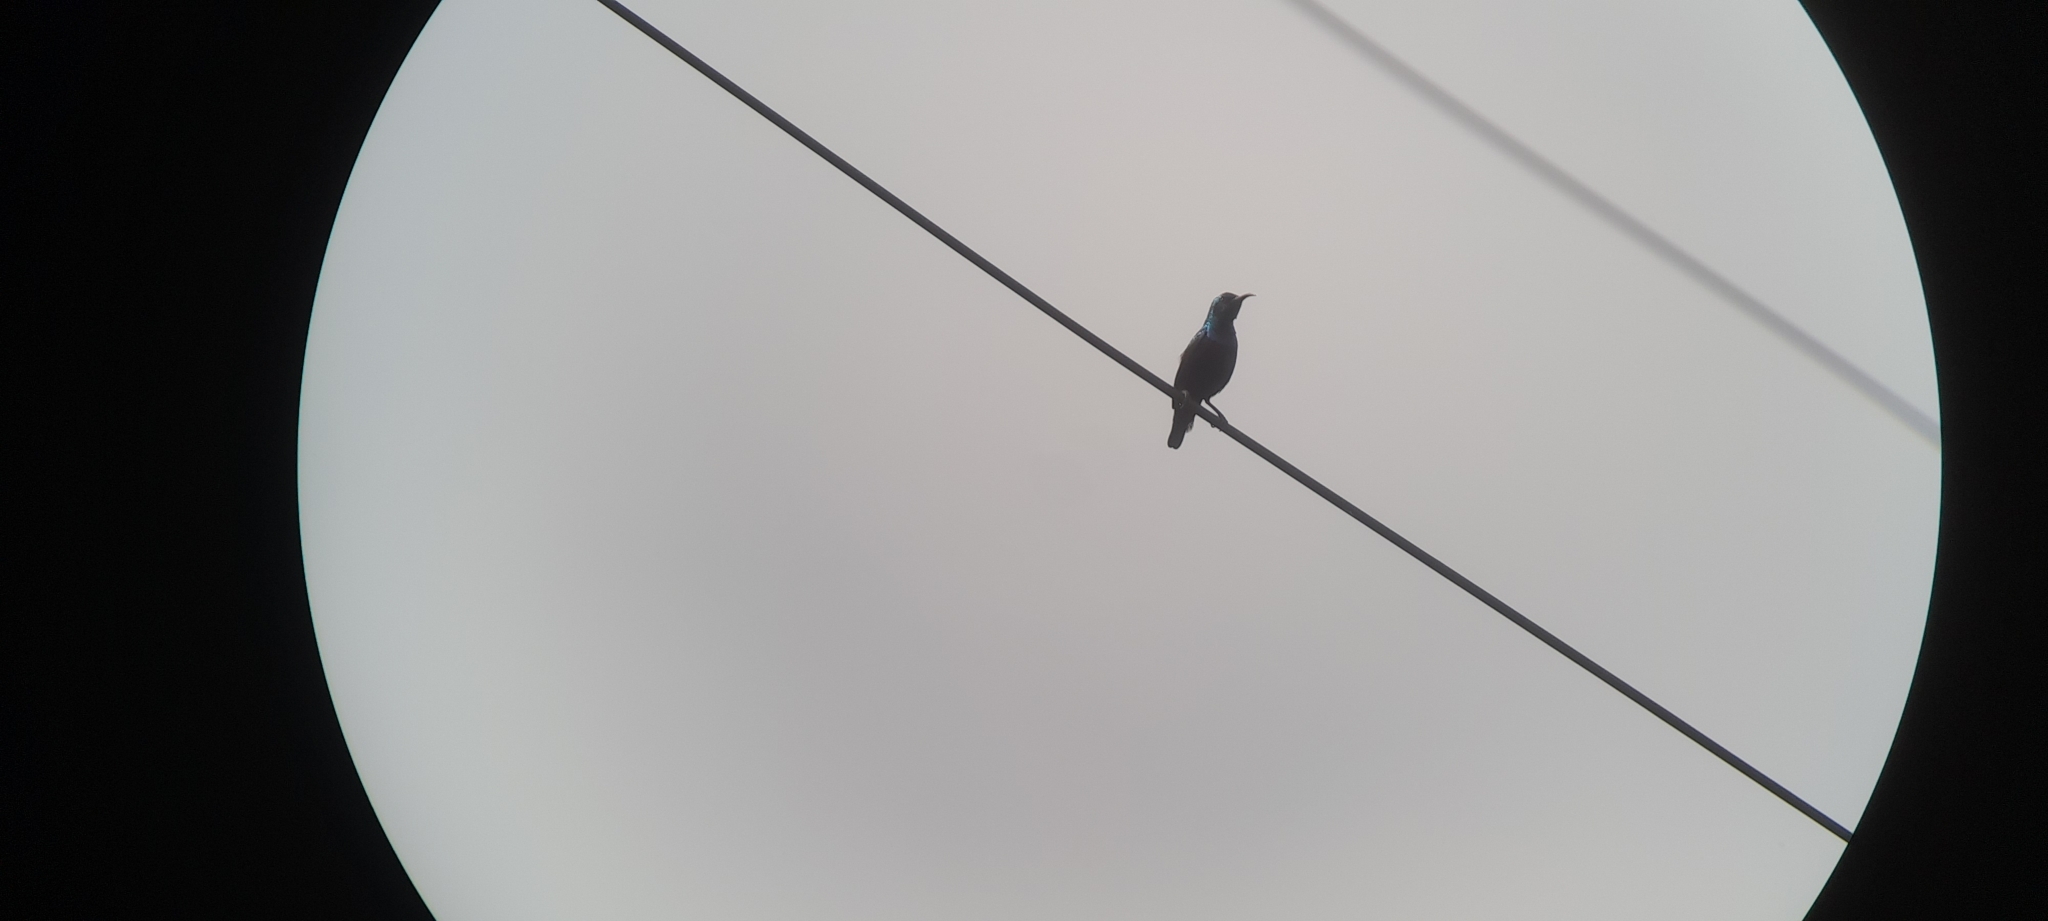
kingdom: Animalia
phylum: Chordata
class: Aves
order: Passeriformes
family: Nectariniidae
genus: Cinnyris
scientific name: Cinnyris asiaticus
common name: Purple sunbird
